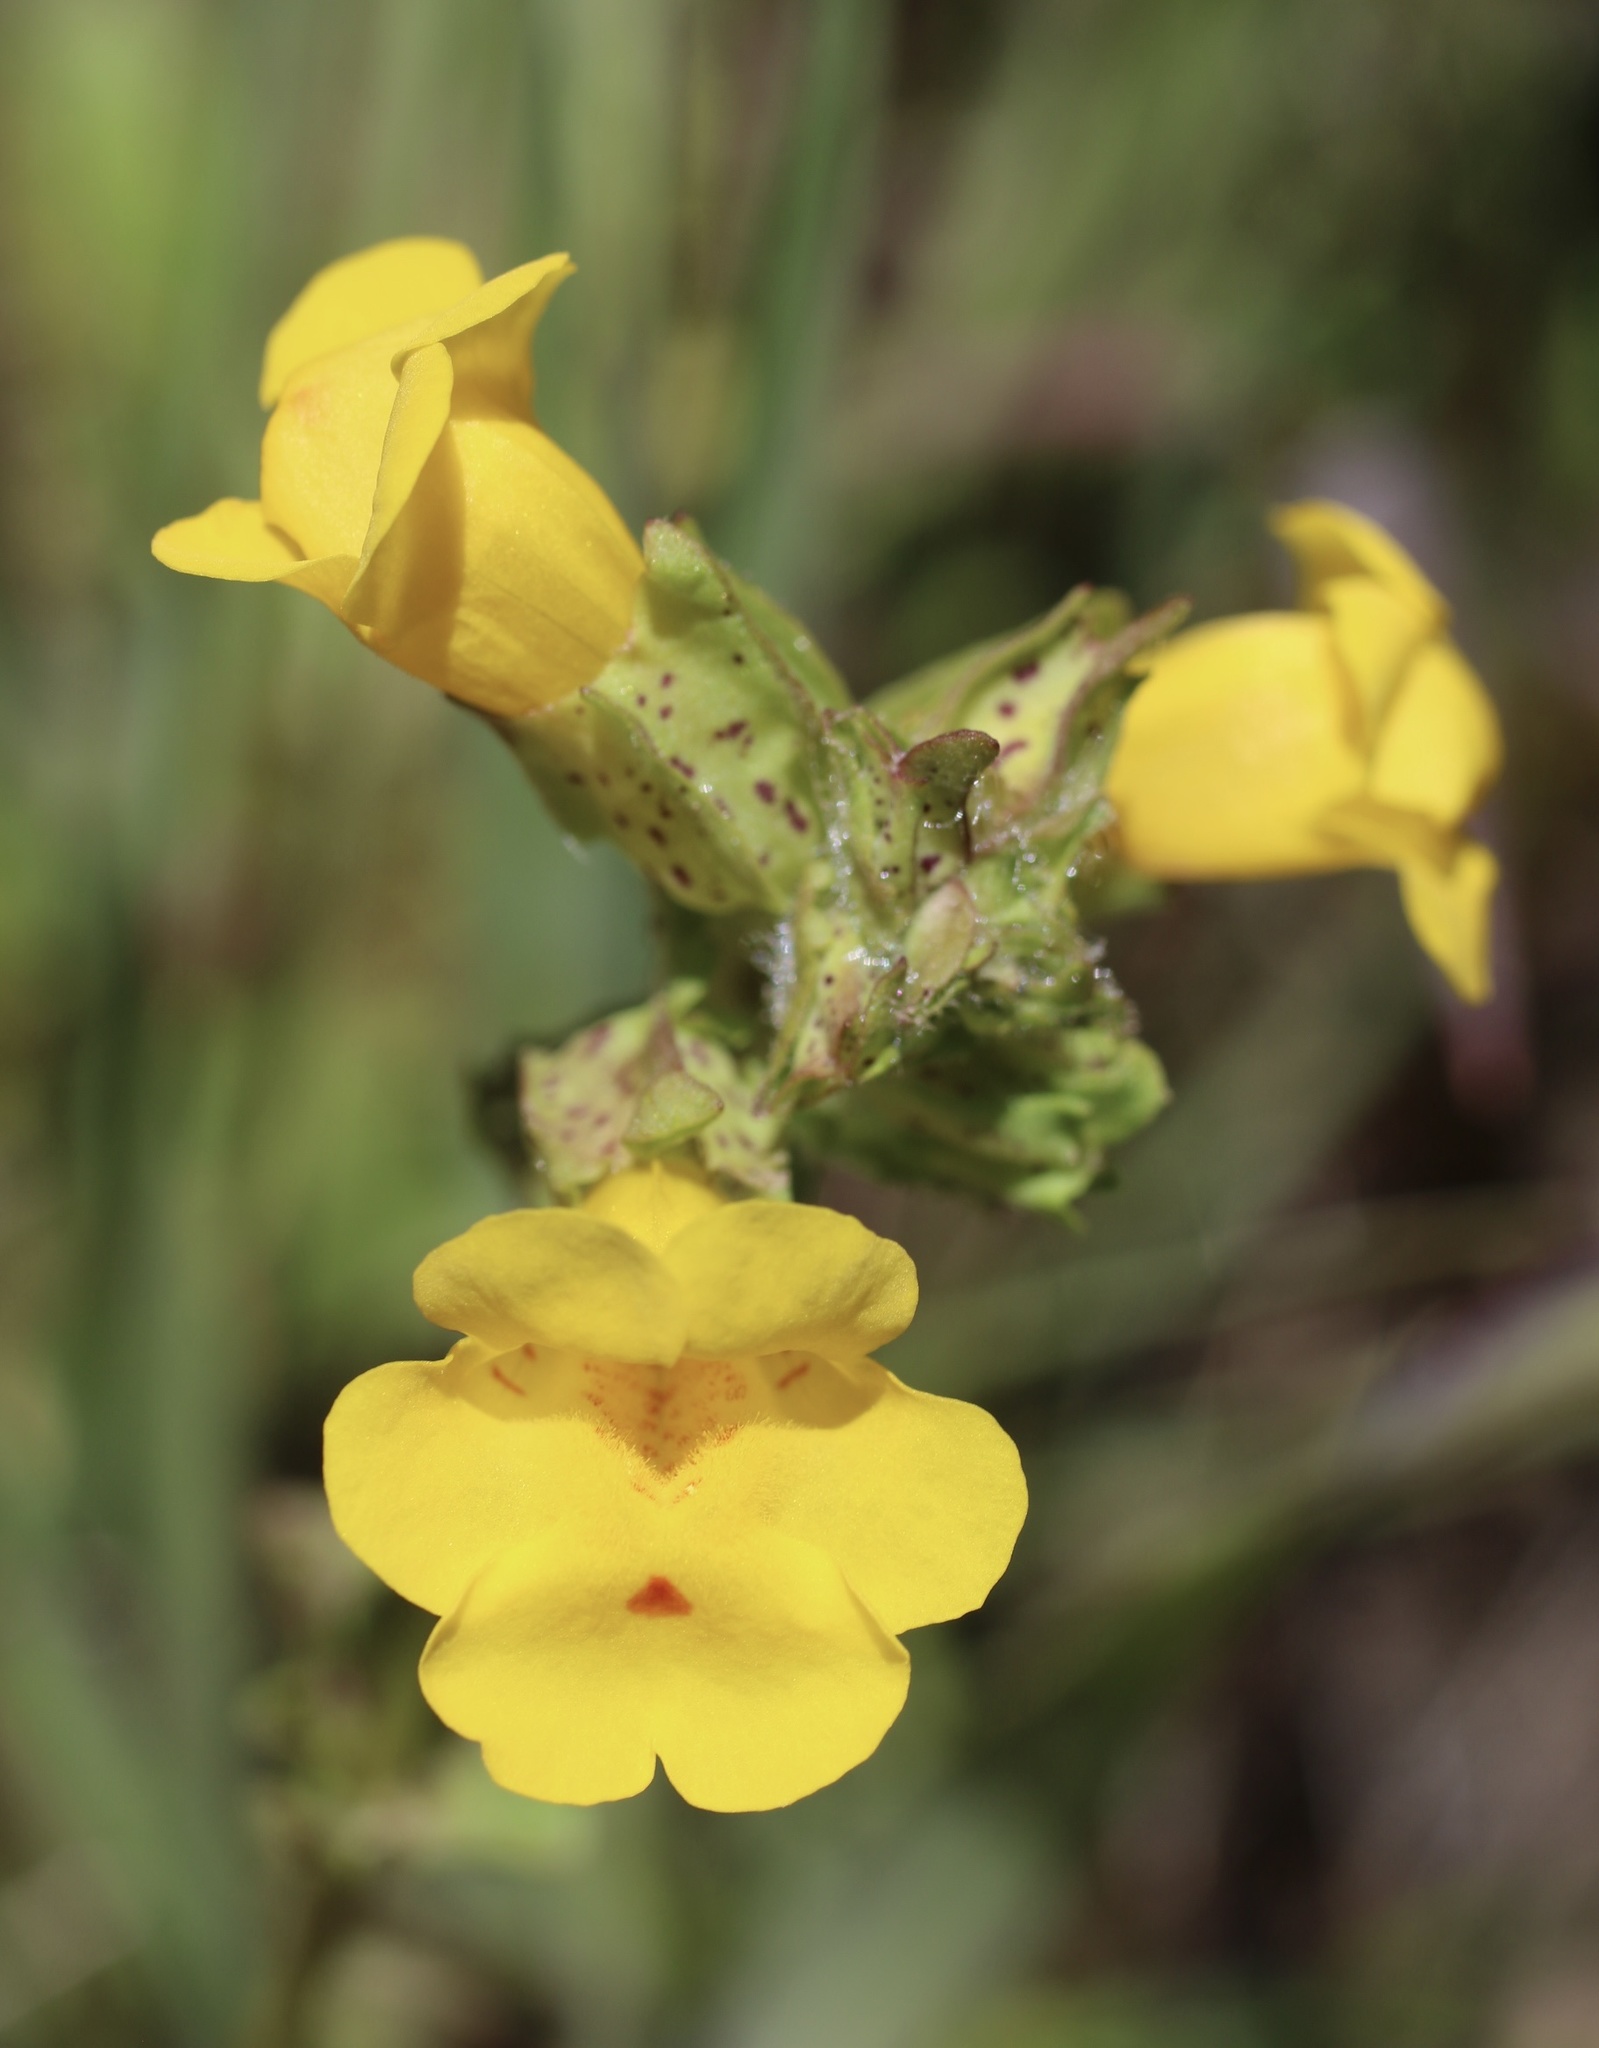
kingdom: Plantae
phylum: Tracheophyta
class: Magnoliopsida
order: Lamiales
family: Phrymaceae
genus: Erythranthe
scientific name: Erythranthe arvensis
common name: Field monkeyflower
